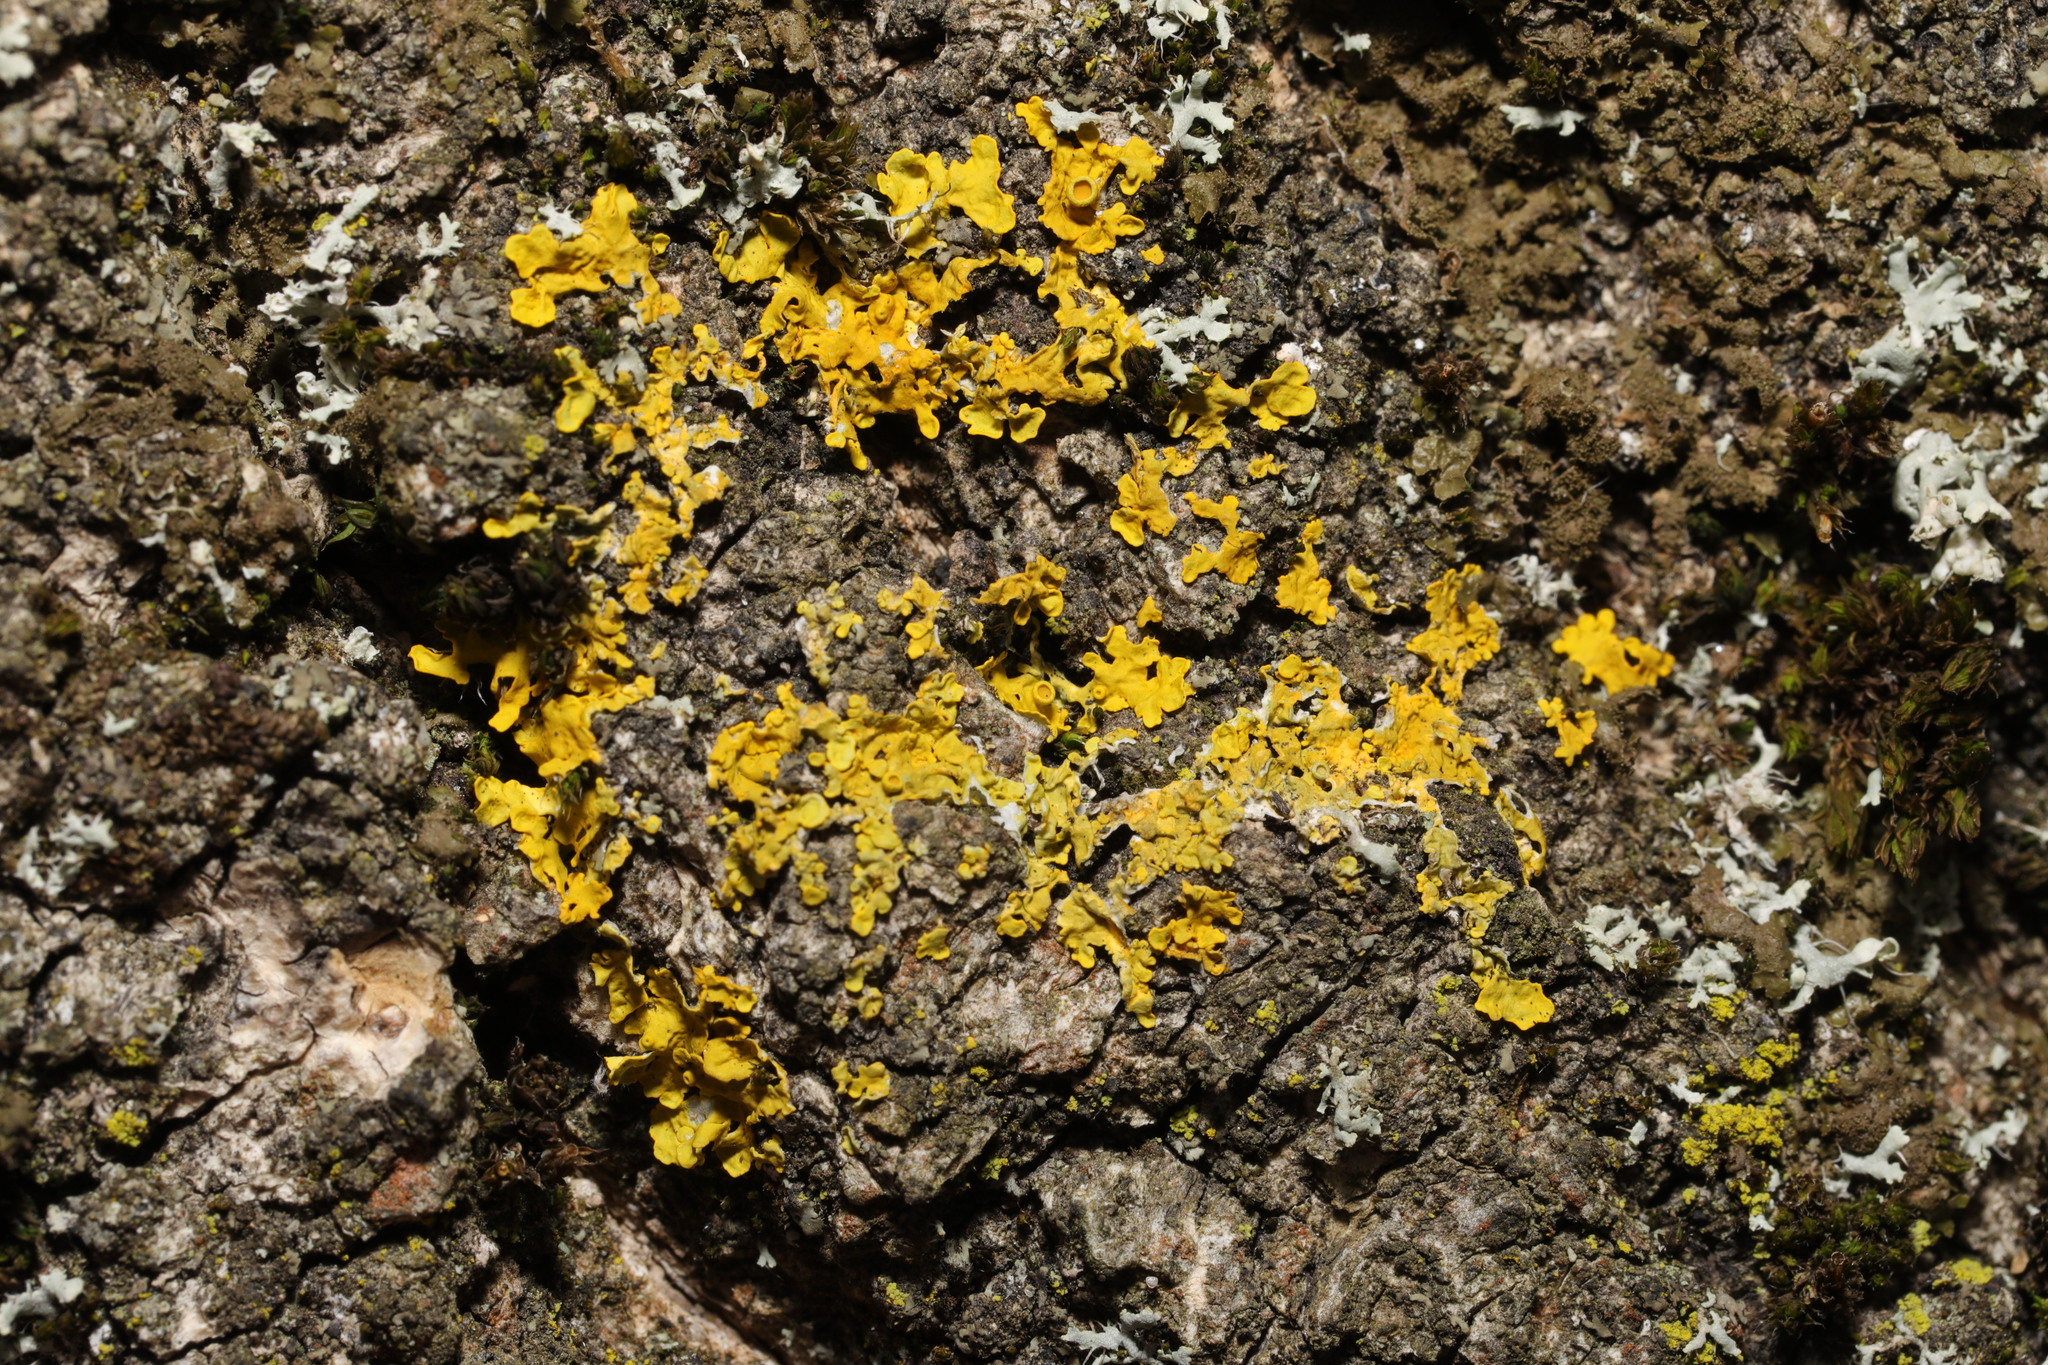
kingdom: Fungi
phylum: Ascomycota
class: Lecanoromycetes
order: Teloschistales
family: Teloschistaceae
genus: Xanthoria
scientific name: Xanthoria parietina
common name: Common orange lichen
